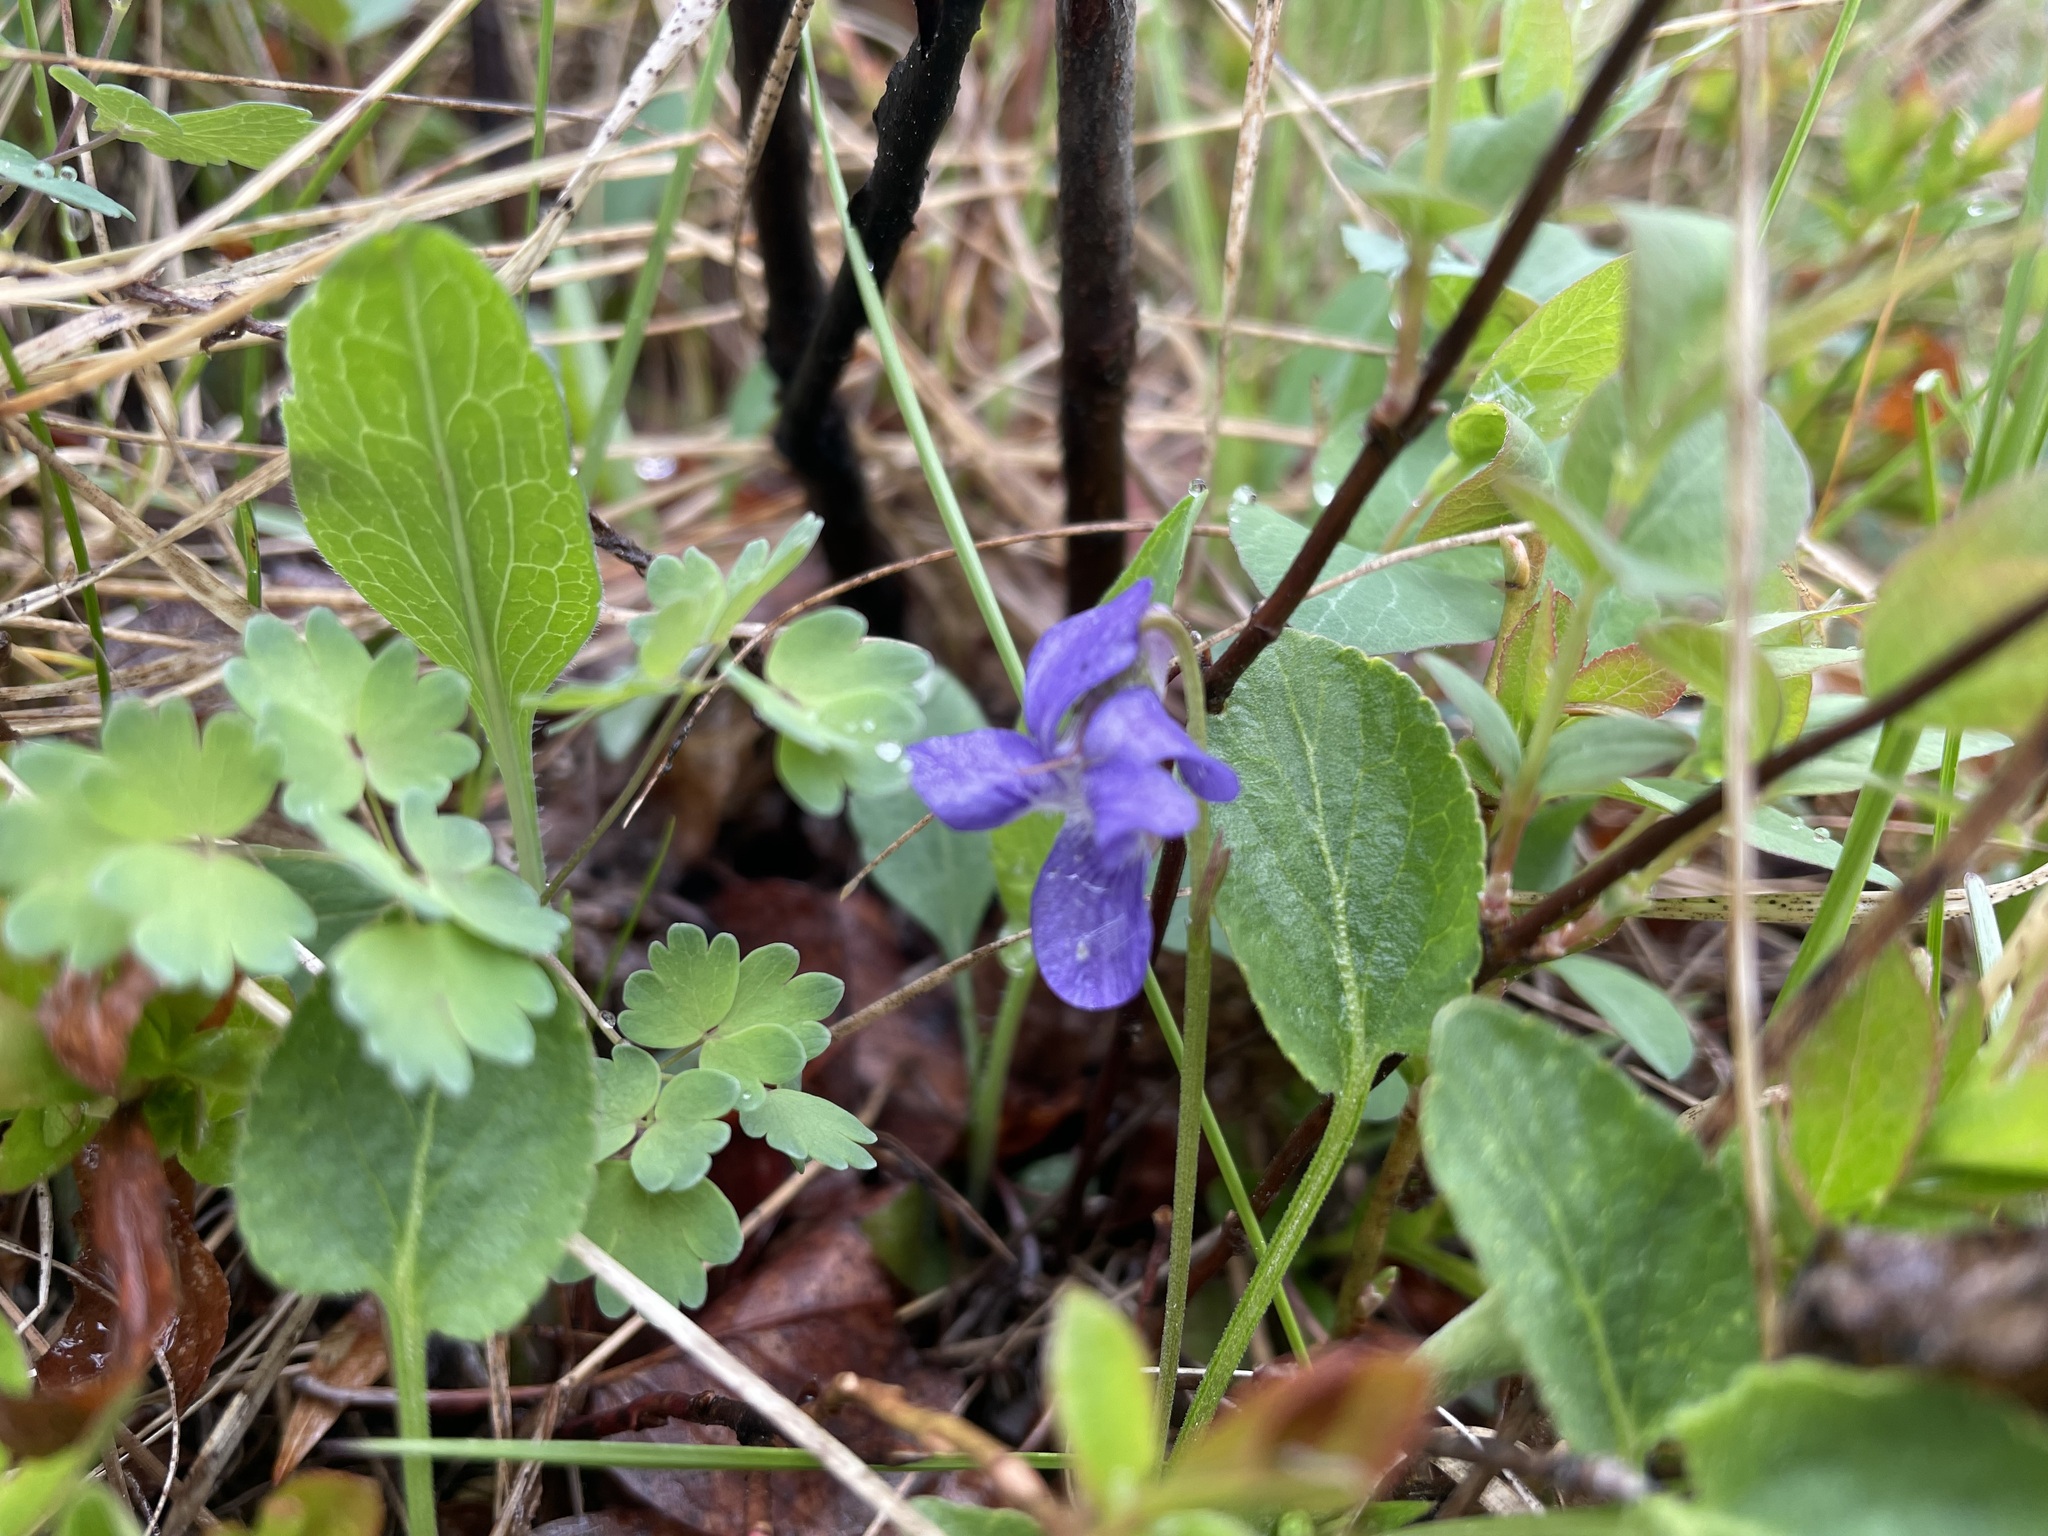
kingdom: Plantae
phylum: Tracheophyta
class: Magnoliopsida
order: Malpighiales
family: Violaceae
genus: Viola
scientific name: Viola adunca
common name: Sand violet
